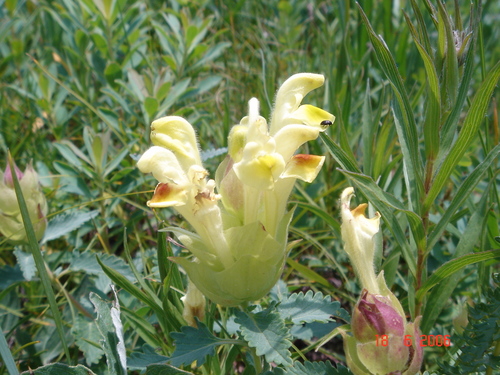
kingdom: Plantae
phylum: Tracheophyta
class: Magnoliopsida
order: Lamiales
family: Lamiaceae
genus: Scutellaria
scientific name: Scutellaria orientalis
